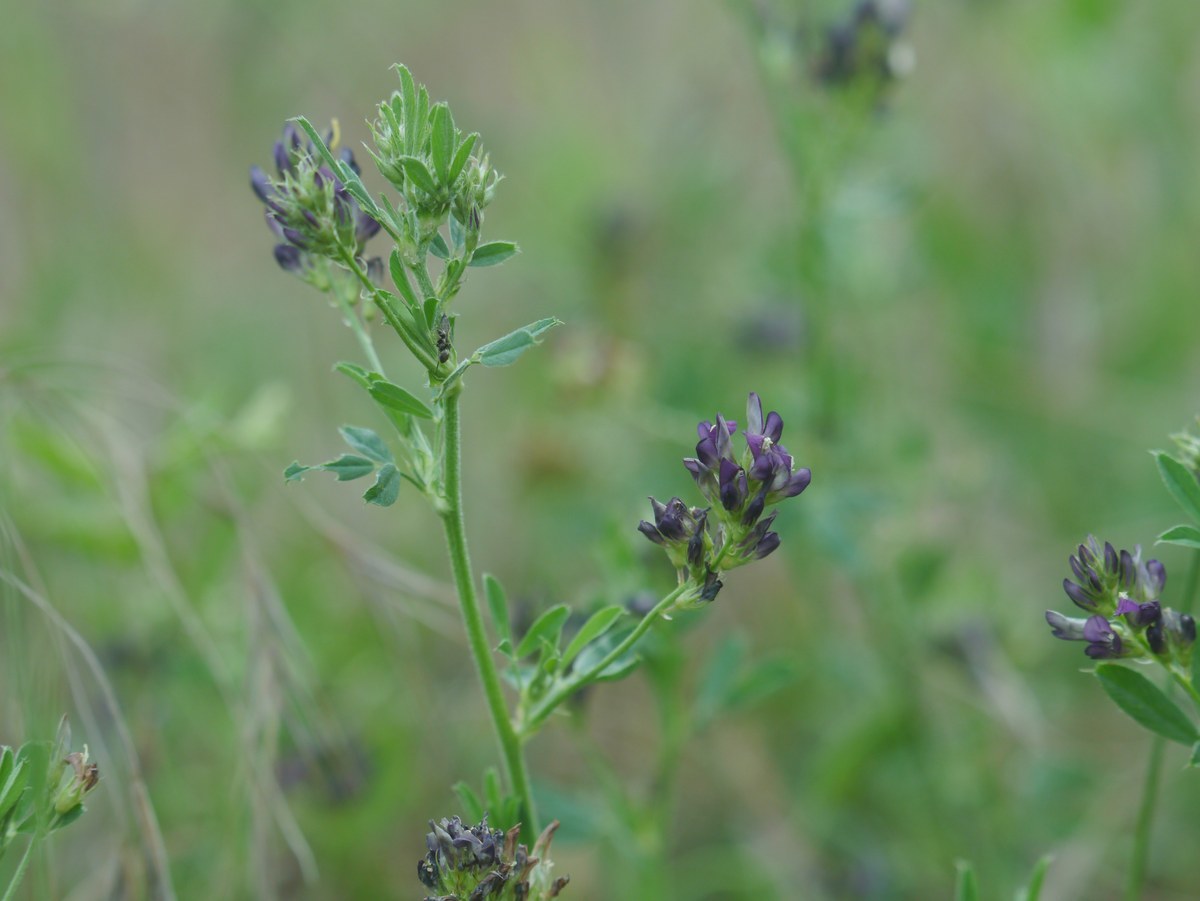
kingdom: Plantae
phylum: Tracheophyta
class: Magnoliopsida
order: Fabales
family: Fabaceae
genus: Medicago
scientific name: Medicago sativa
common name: Alfalfa
